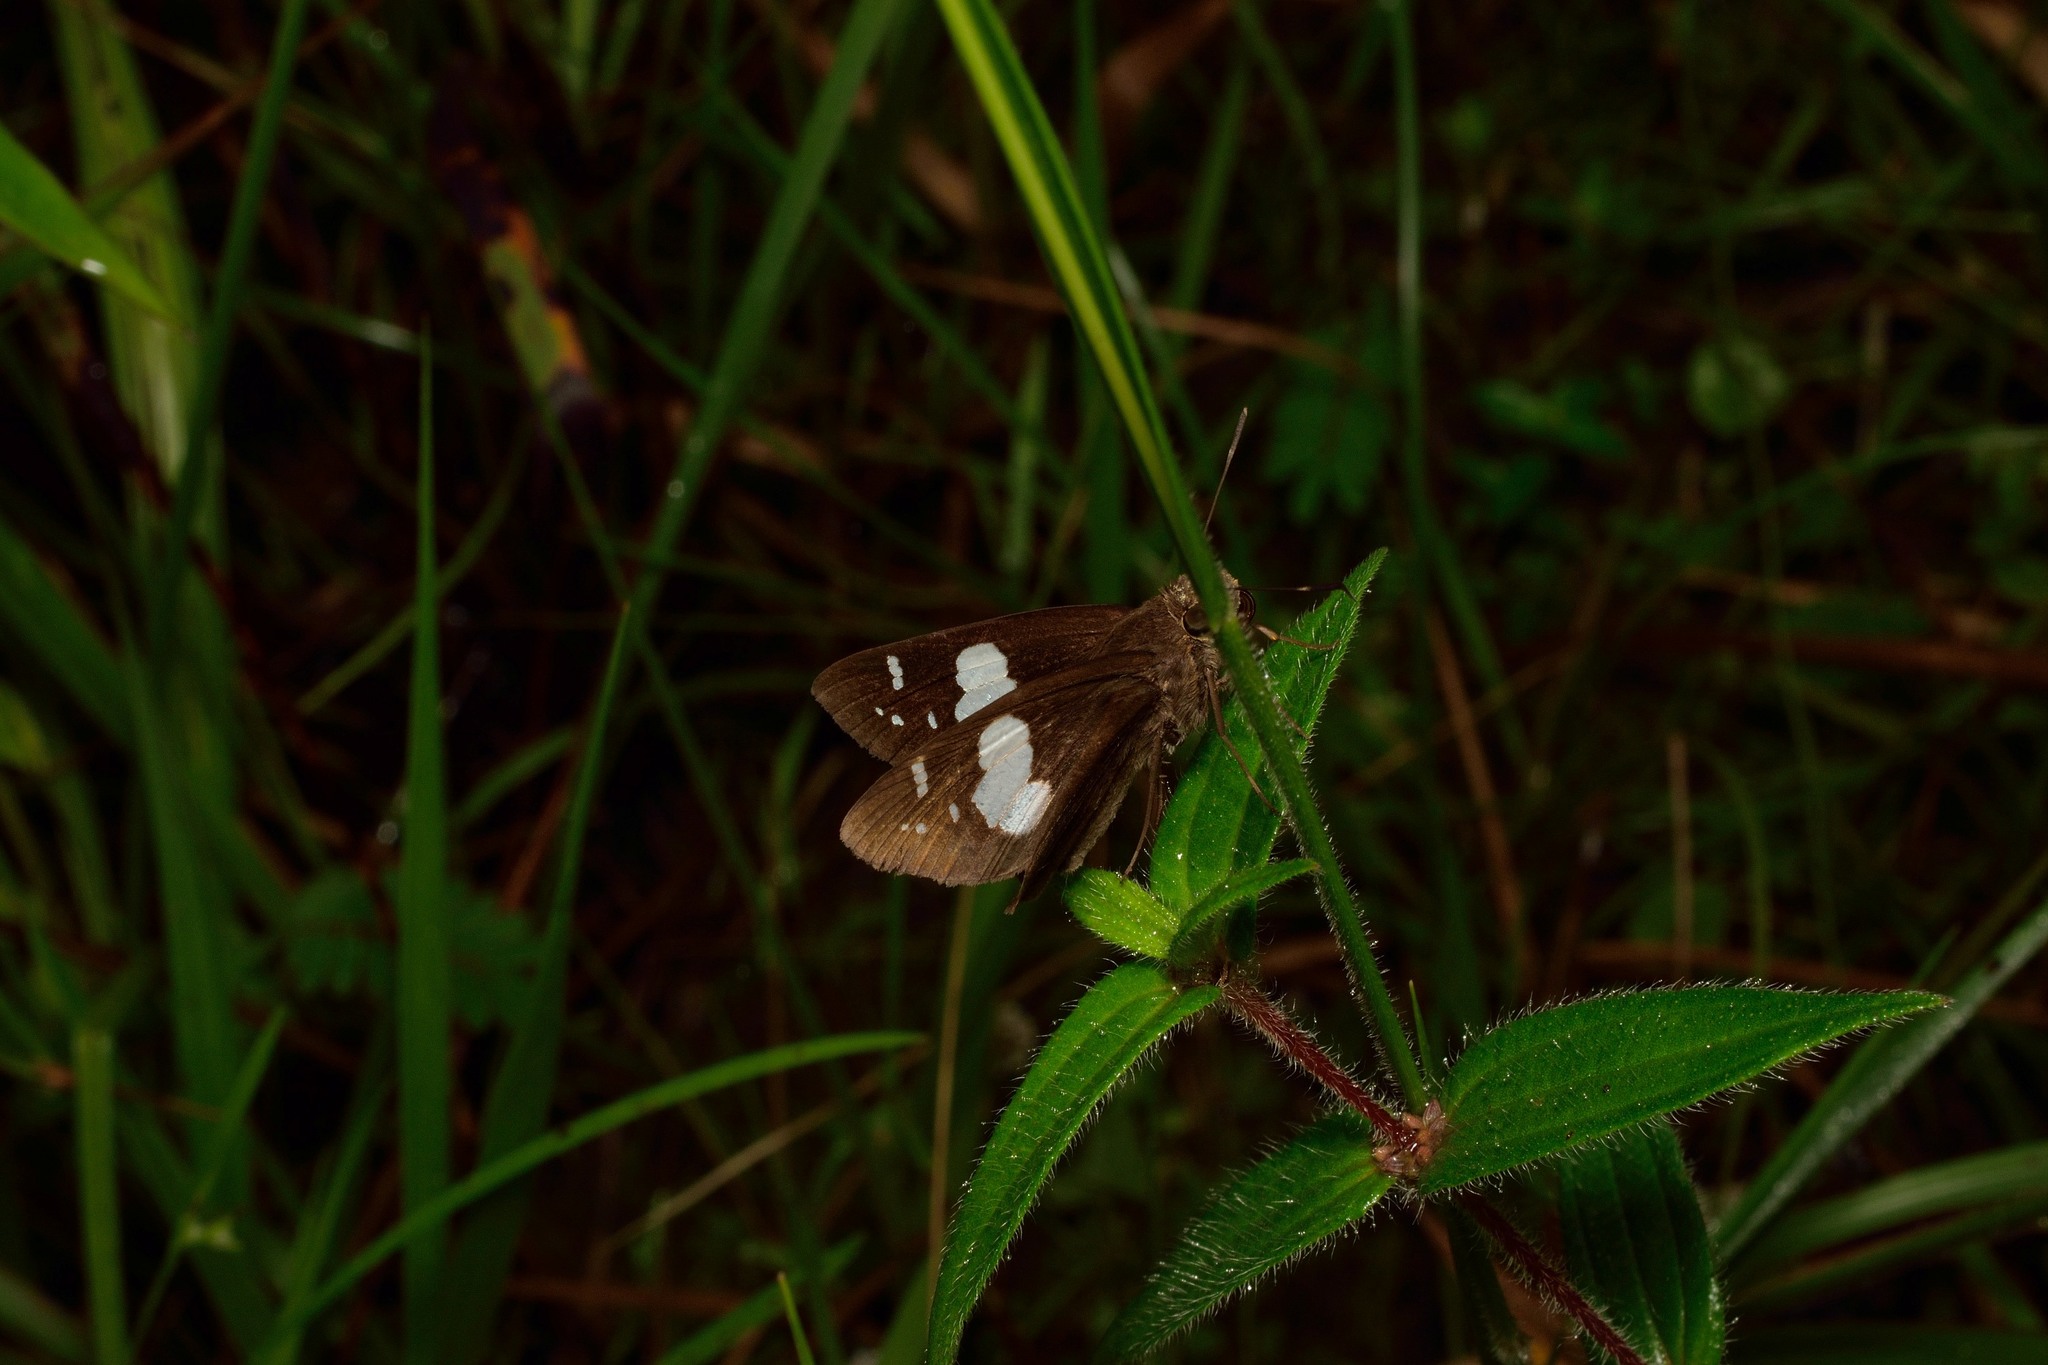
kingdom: Animalia
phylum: Arthropoda
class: Insecta
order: Lepidoptera
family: Hesperiidae
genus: Notocrypta
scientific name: Notocrypta curvifascia
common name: Restricted demon
